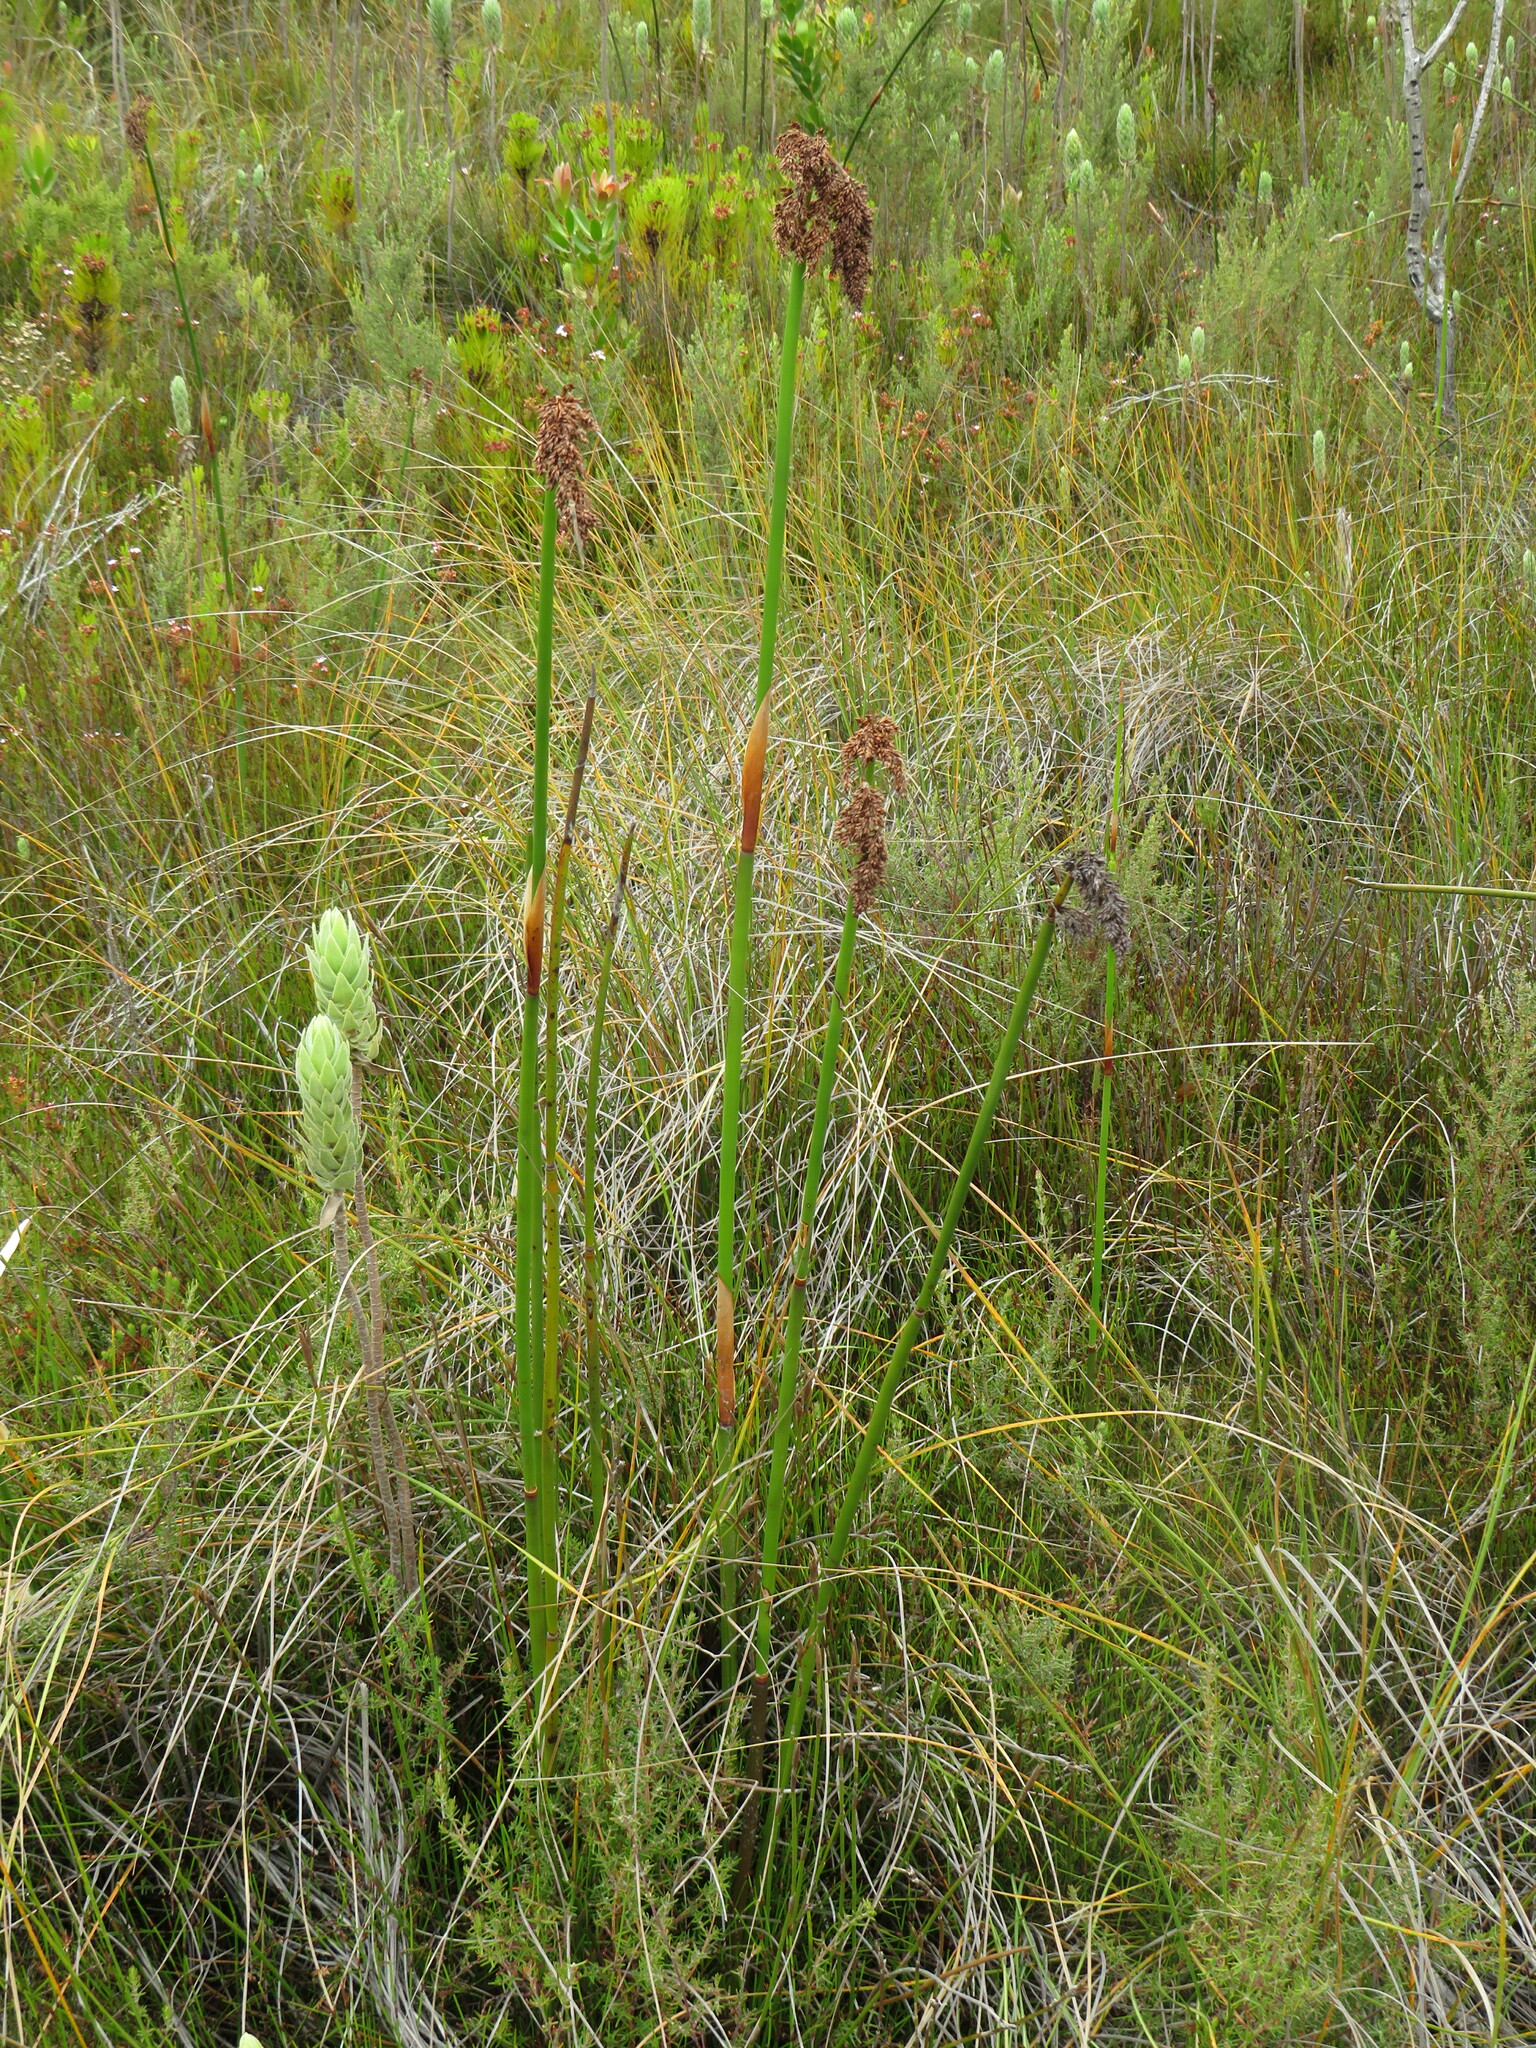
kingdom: Plantae
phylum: Tracheophyta
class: Liliopsida
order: Poales
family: Restionaceae
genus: Elegia
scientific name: Elegia mucronata
